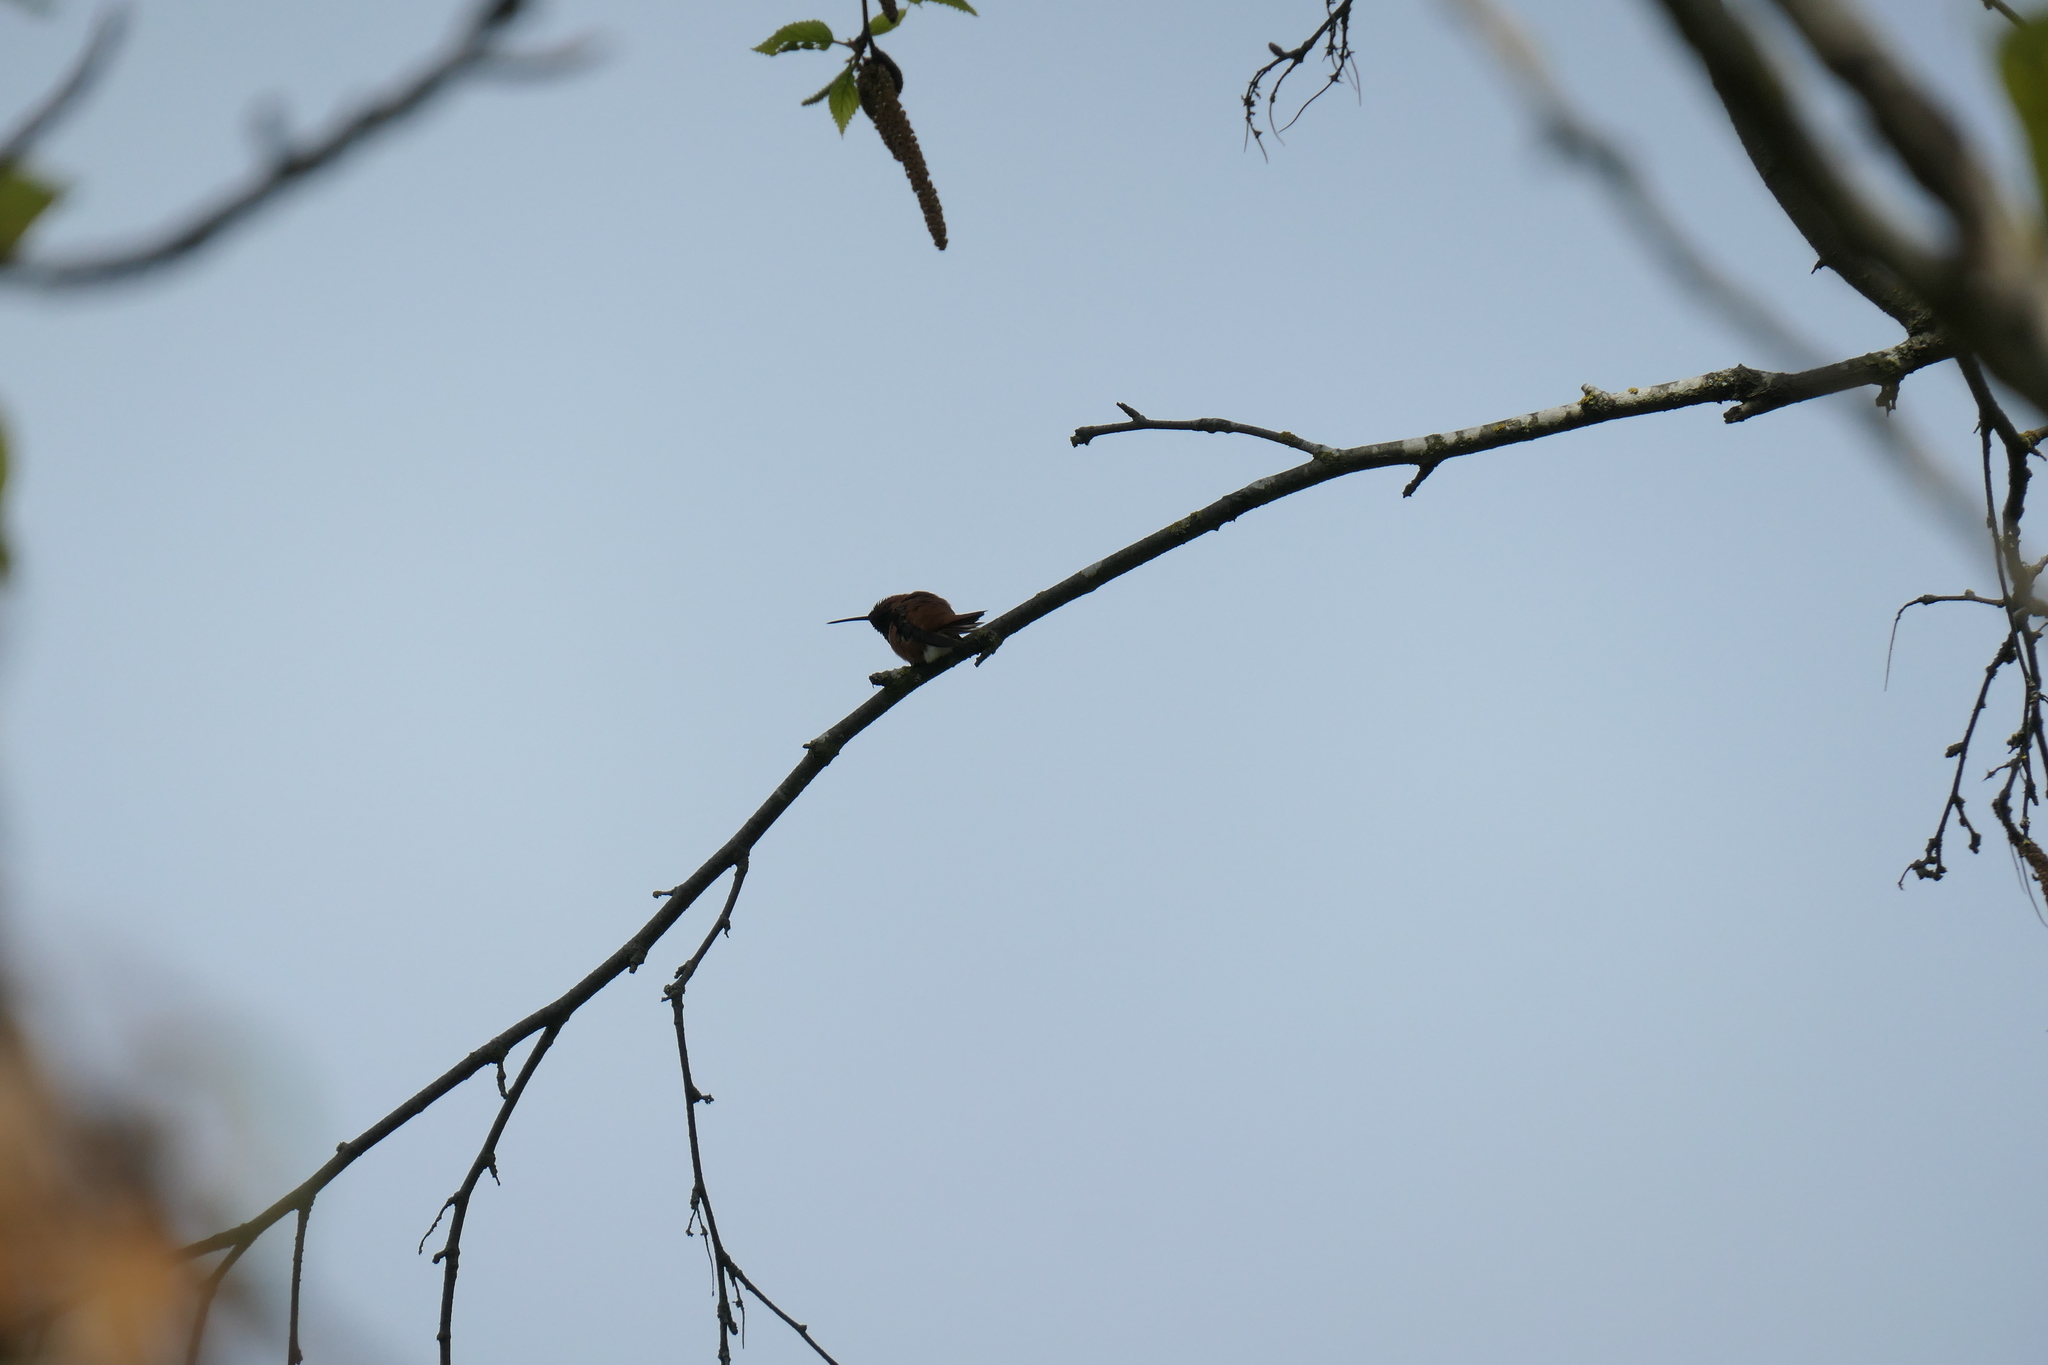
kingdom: Animalia
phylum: Chordata
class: Aves
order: Apodiformes
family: Trochilidae
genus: Selasphorus
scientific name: Selasphorus rufus
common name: Rufous hummingbird
